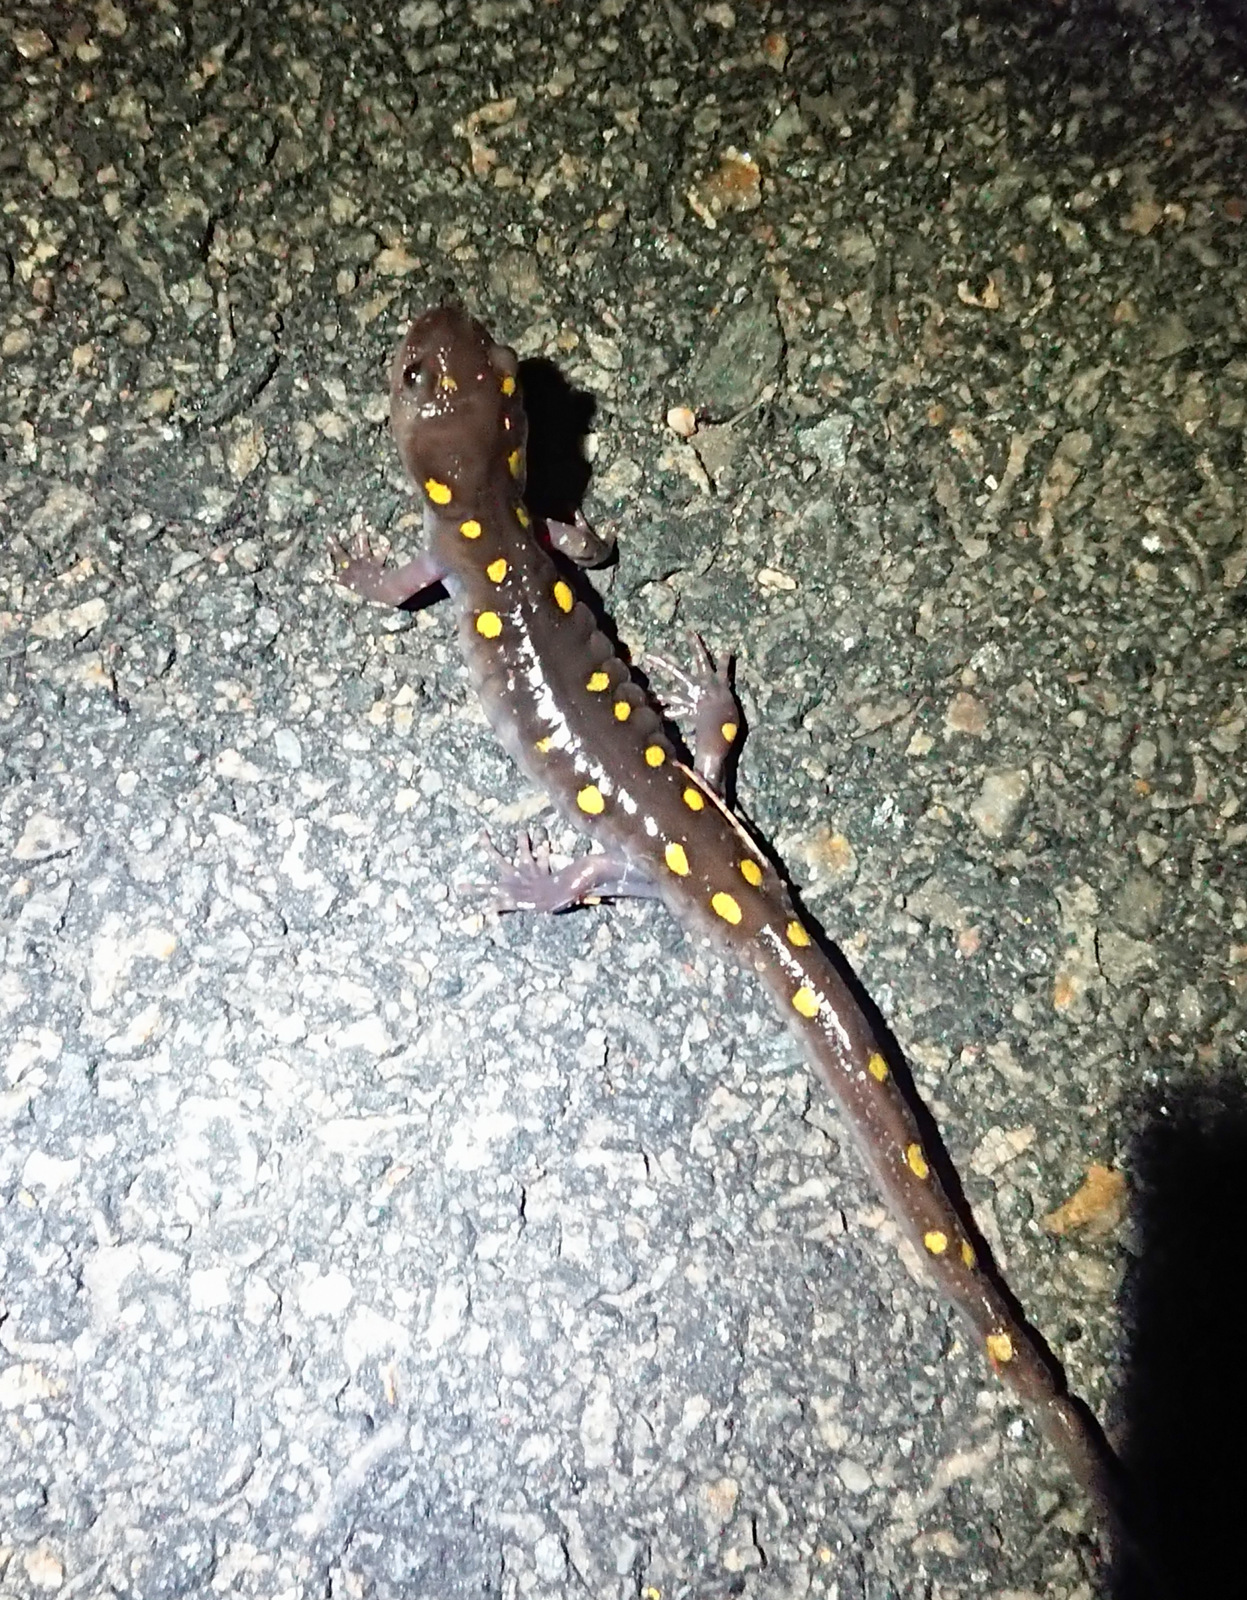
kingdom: Animalia
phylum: Chordata
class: Amphibia
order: Caudata
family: Ambystomatidae
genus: Ambystoma
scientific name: Ambystoma maculatum
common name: Spotted salamander
